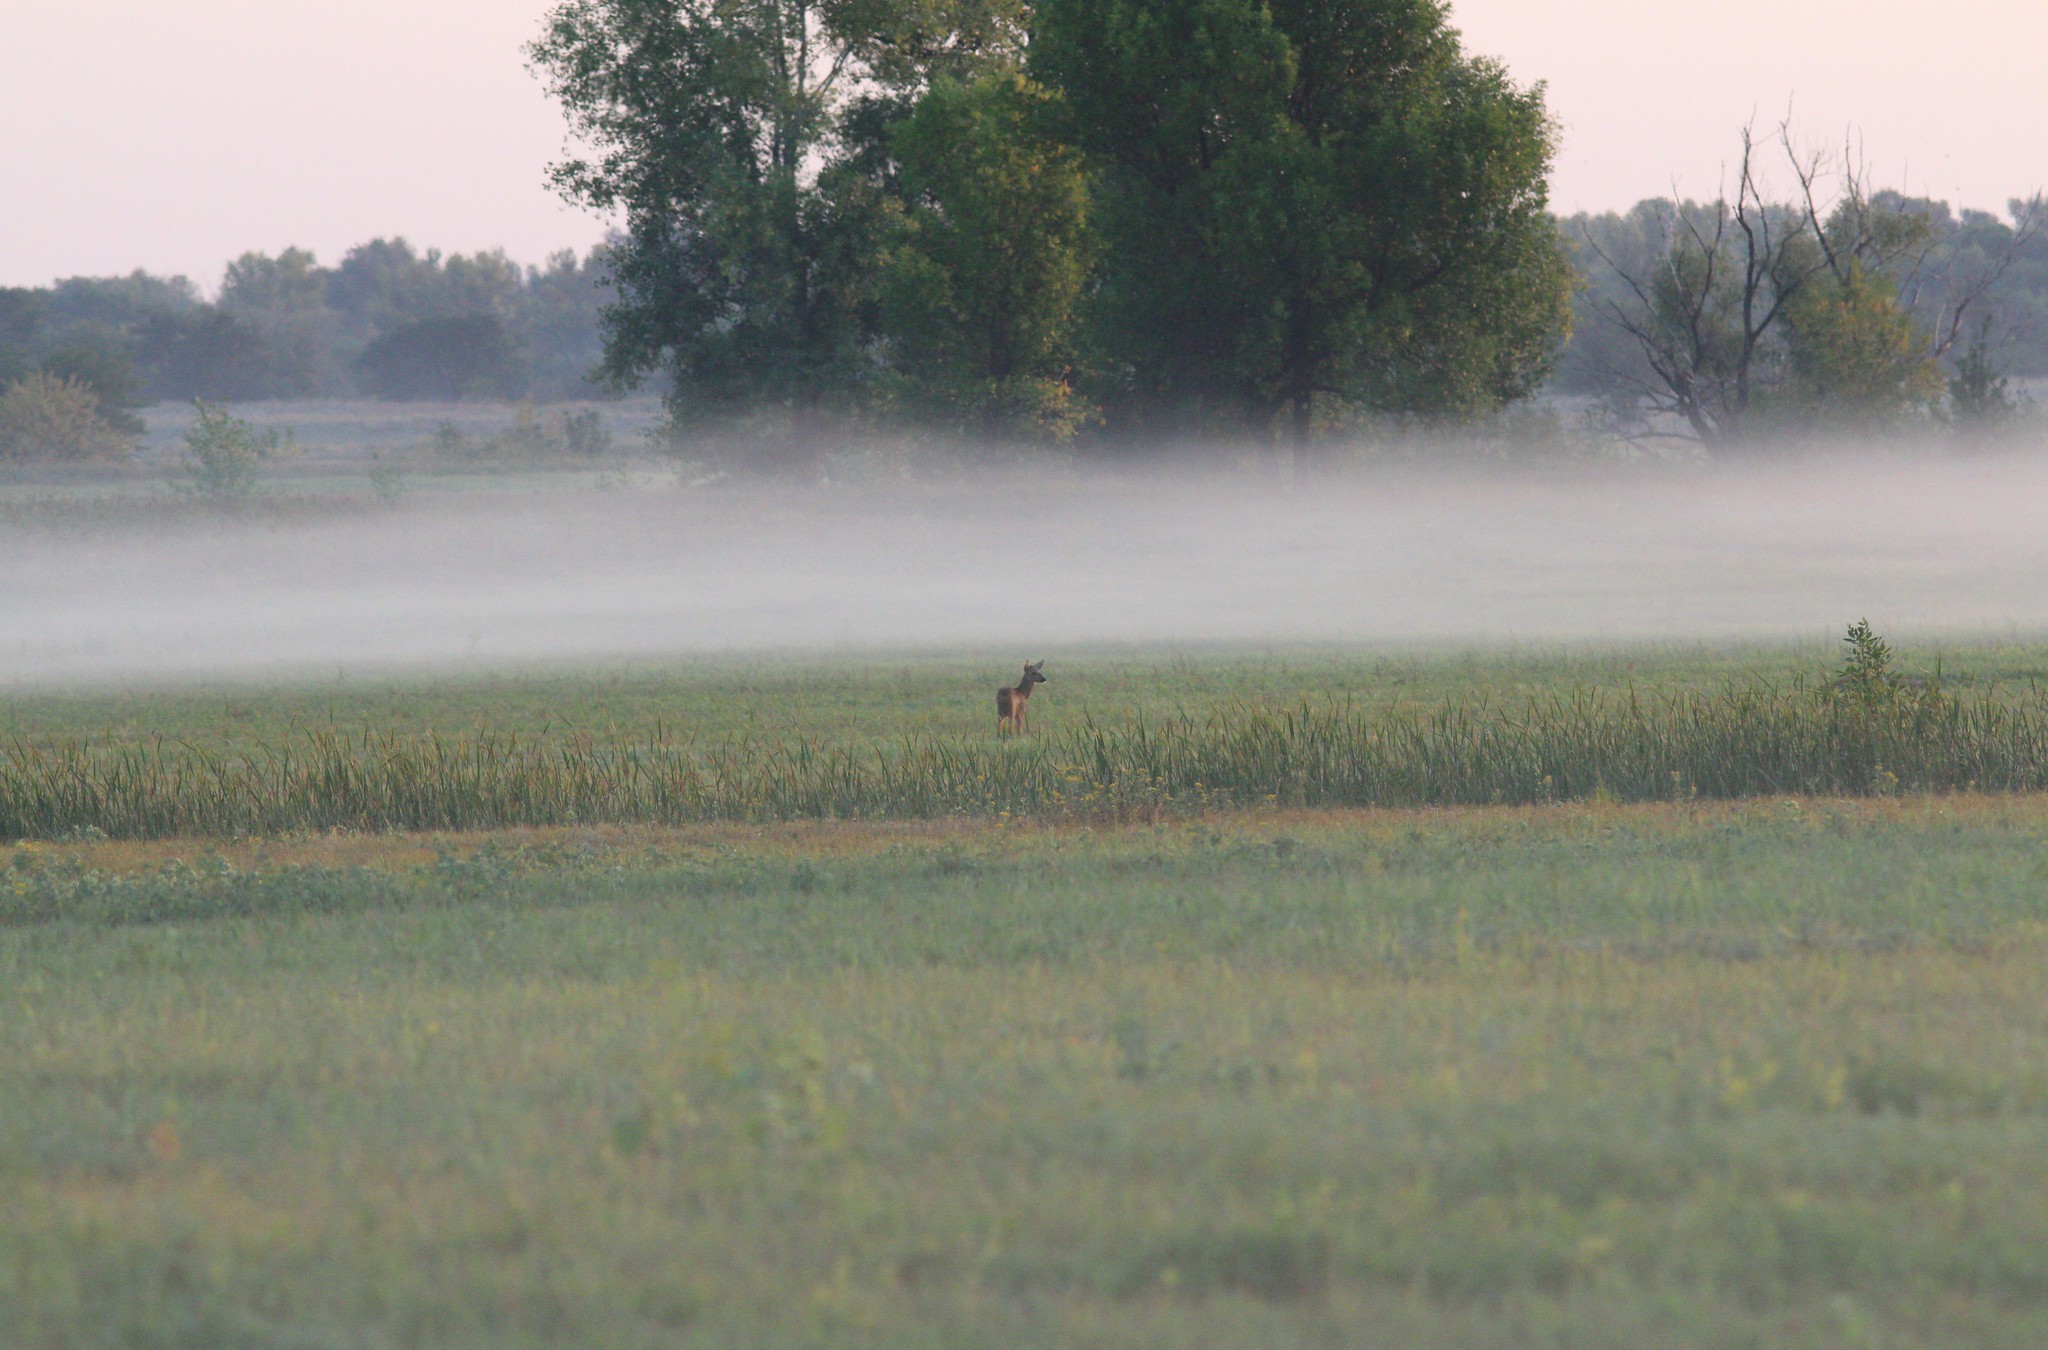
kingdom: Animalia
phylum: Chordata
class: Mammalia
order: Artiodactyla
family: Cervidae
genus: Capreolus
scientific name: Capreolus pygargus
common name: Siberian roe
